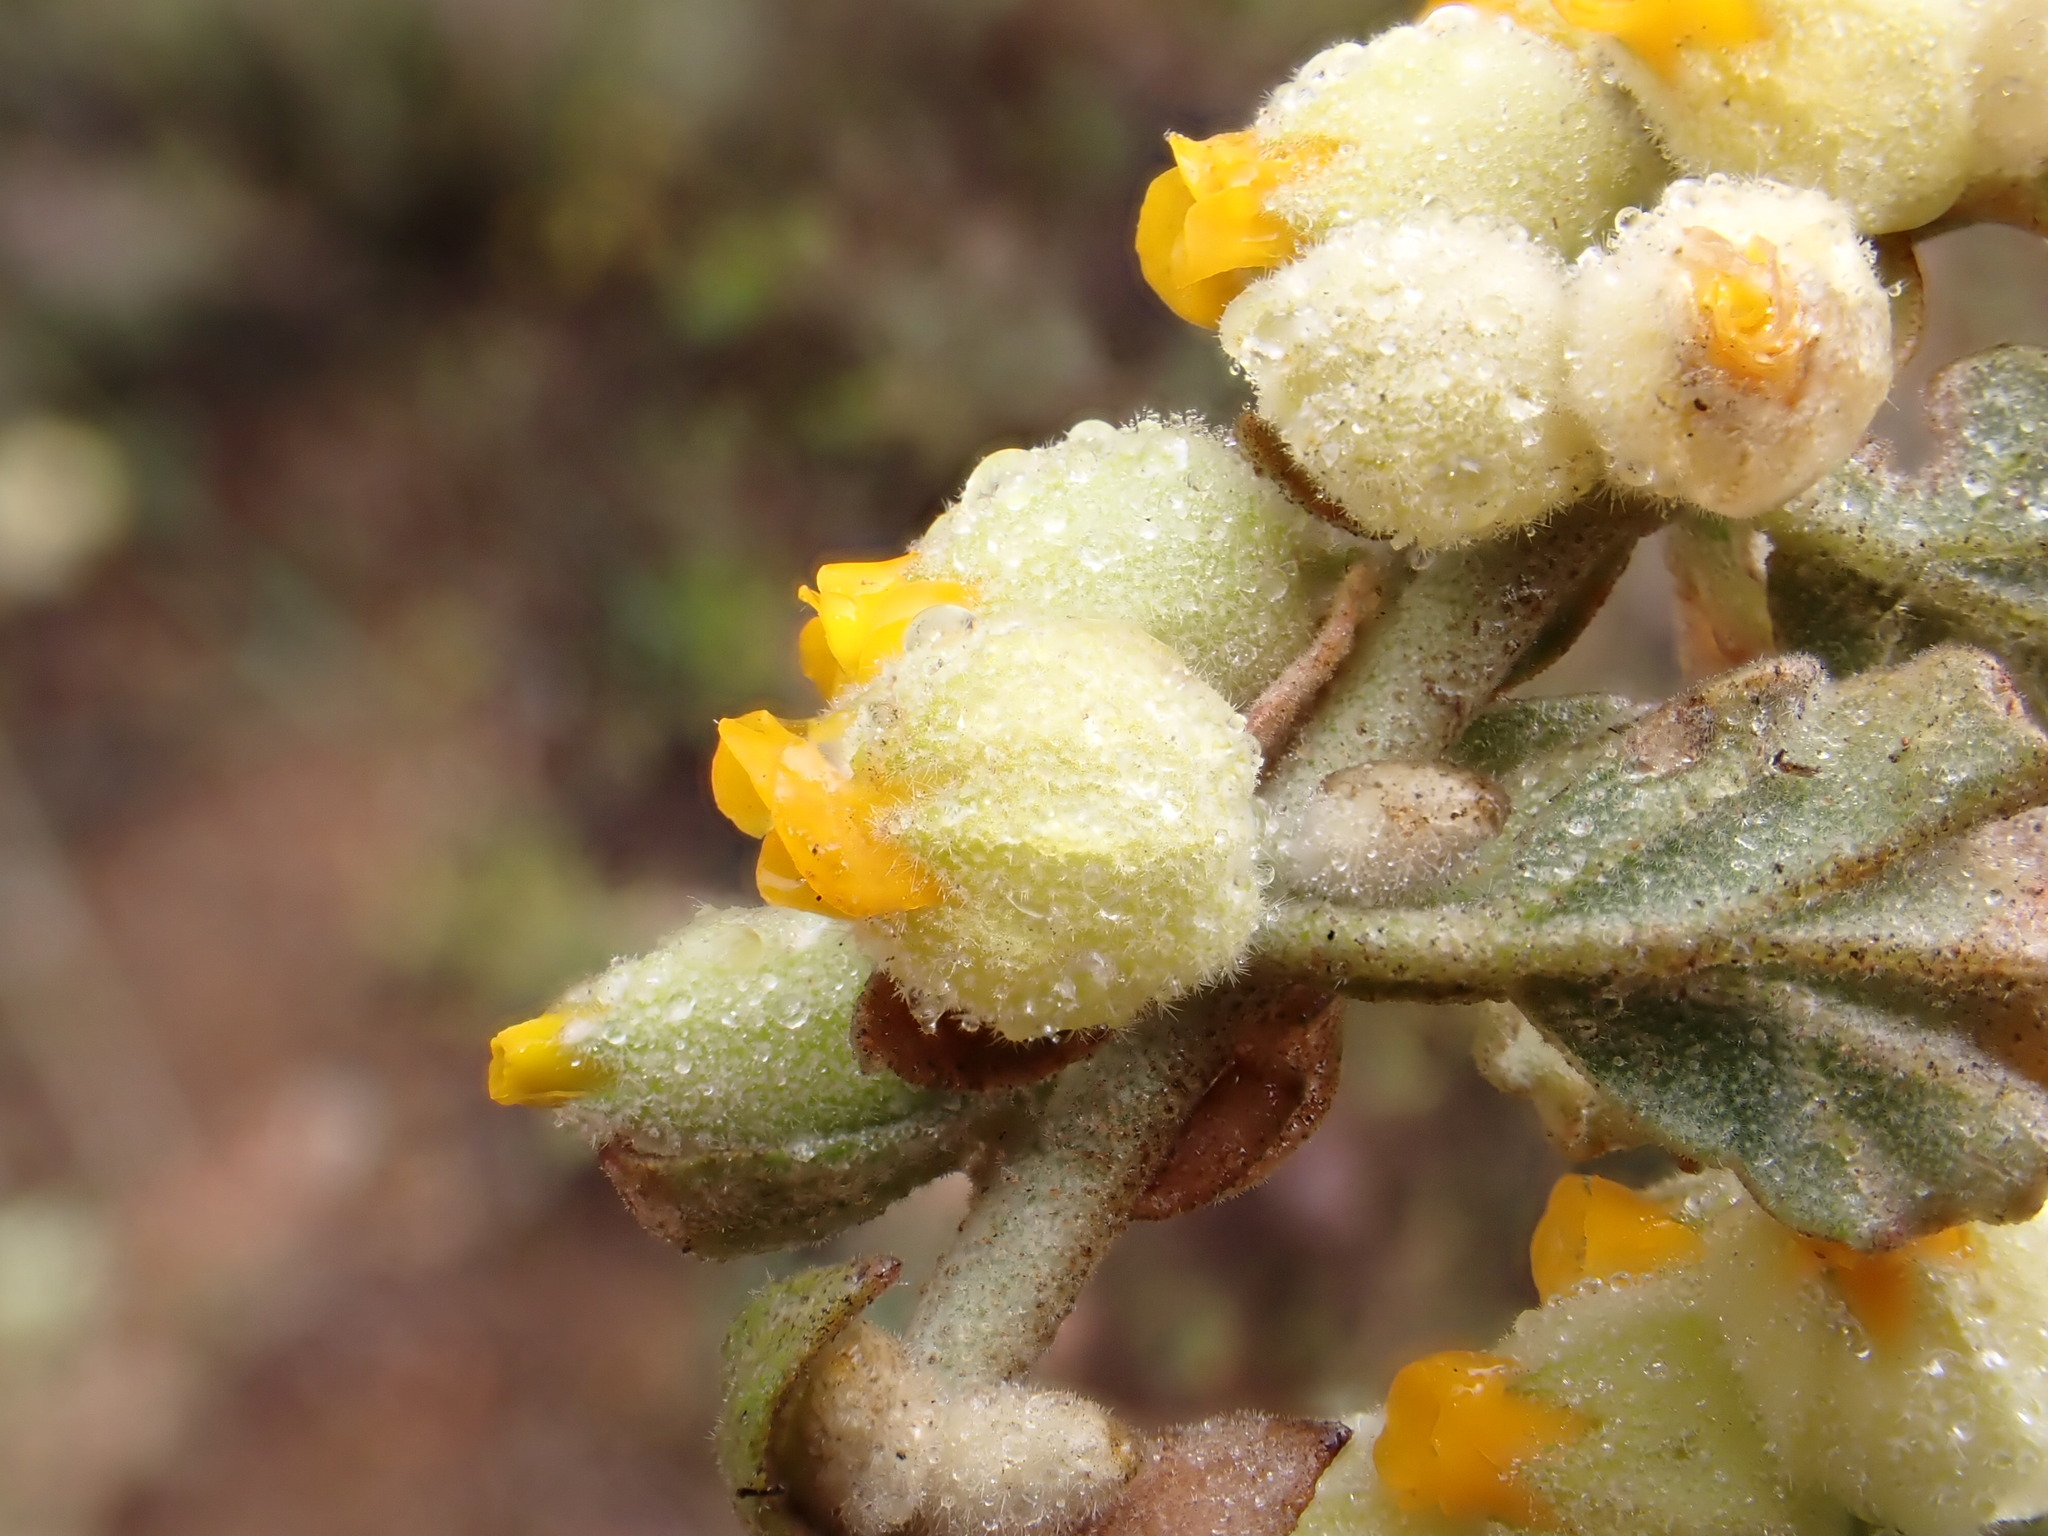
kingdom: Plantae
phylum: Tracheophyta
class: Magnoliopsida
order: Malvales
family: Malvaceae
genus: Hermannia
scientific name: Hermannia johanssenii
